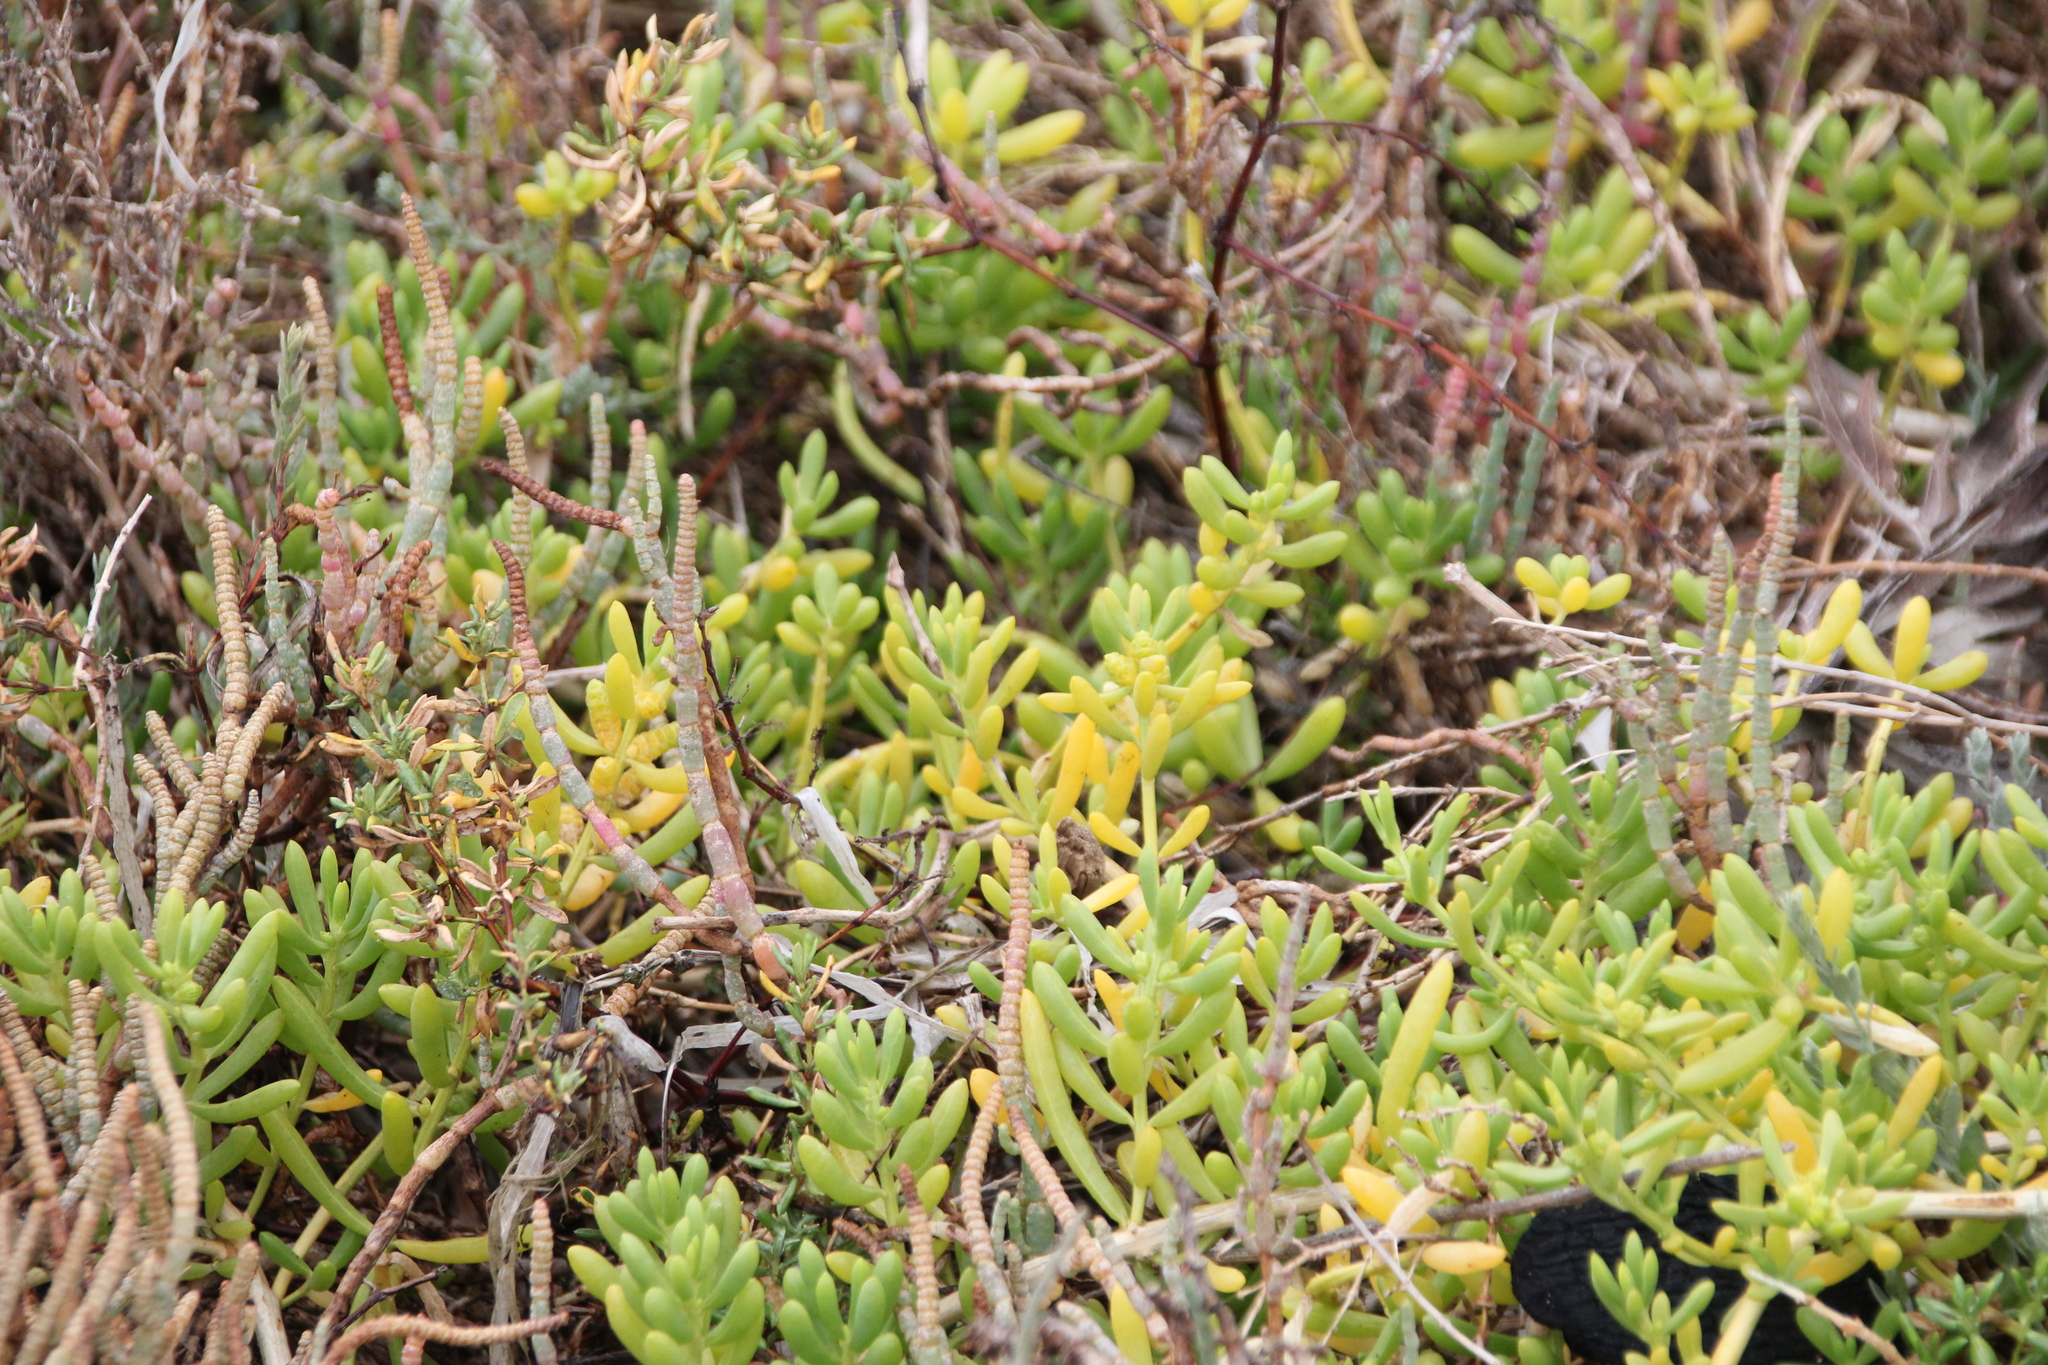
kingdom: Plantae
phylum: Tracheophyta
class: Magnoliopsida
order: Brassicales
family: Bataceae
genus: Batis
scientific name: Batis maritima
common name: Turtleweed
